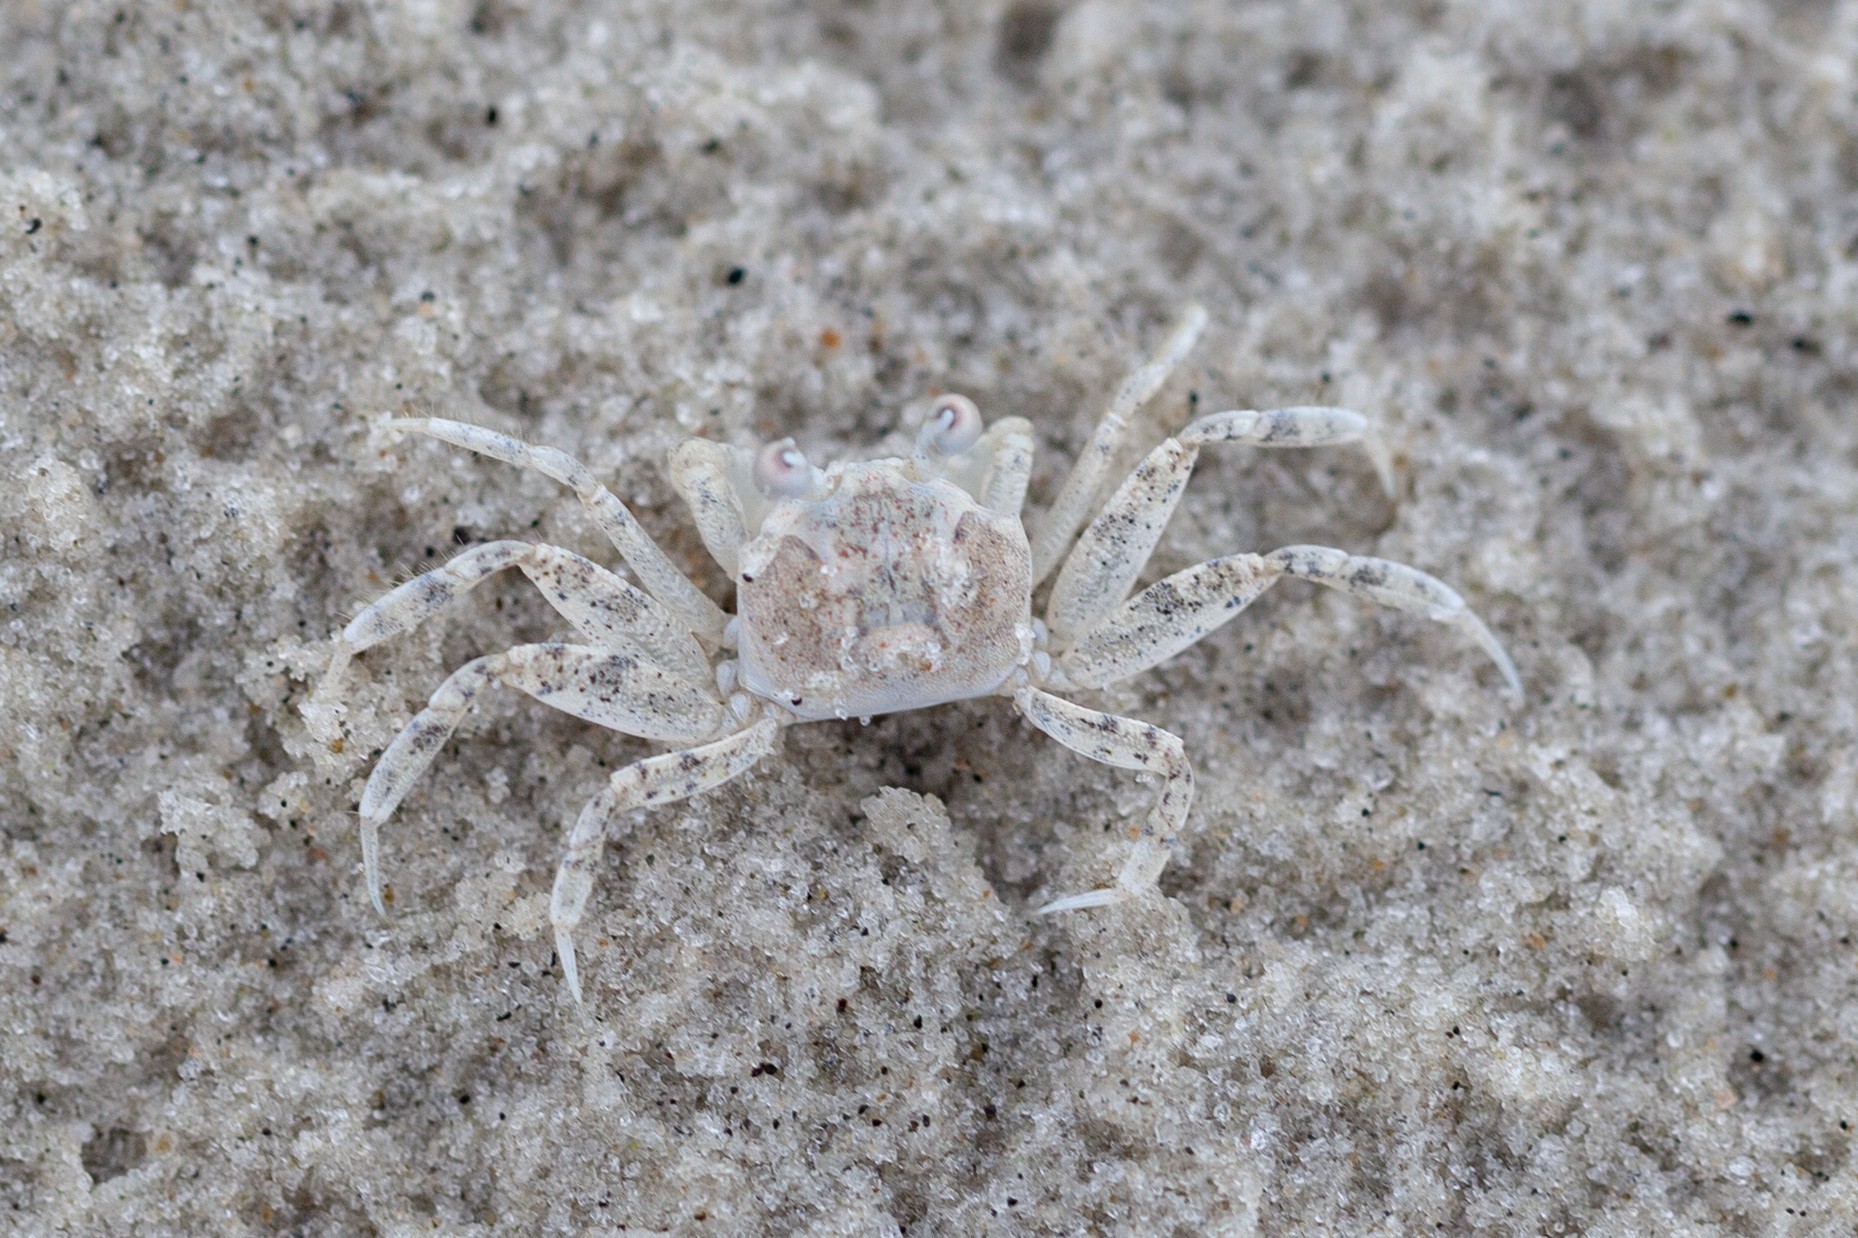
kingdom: Animalia
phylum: Arthropoda
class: Malacostraca
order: Decapoda
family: Ocypodidae
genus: Ocypode
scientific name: Ocypode quadrata
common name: Ghost crab
